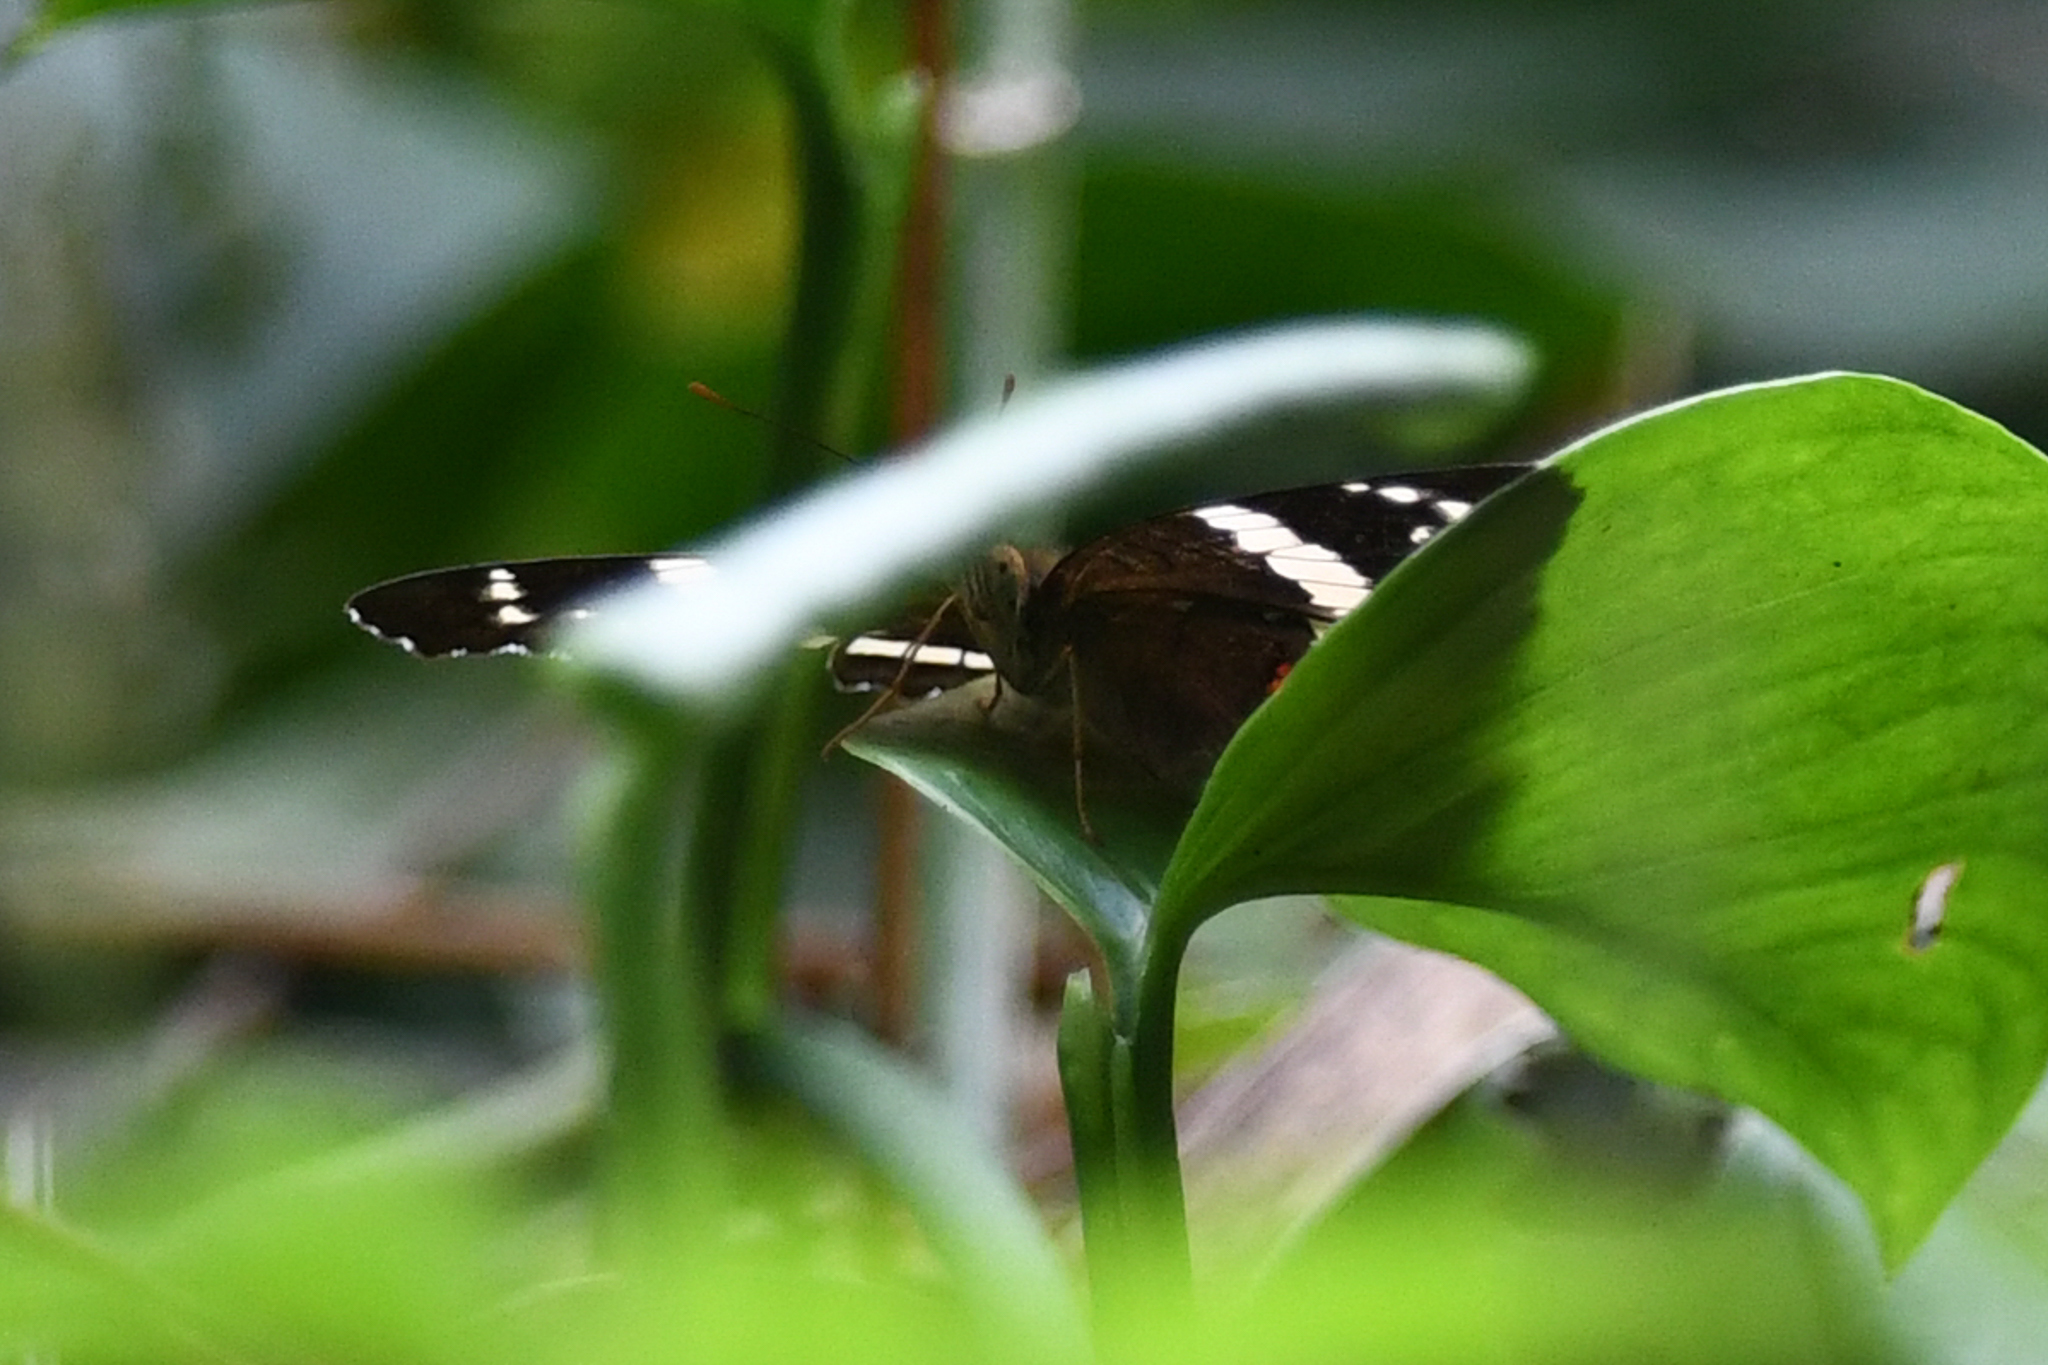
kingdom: Animalia
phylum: Arthropoda
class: Insecta
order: Lepidoptera
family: Nymphalidae
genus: Anartia
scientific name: Anartia fatima
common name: Banded peacock
